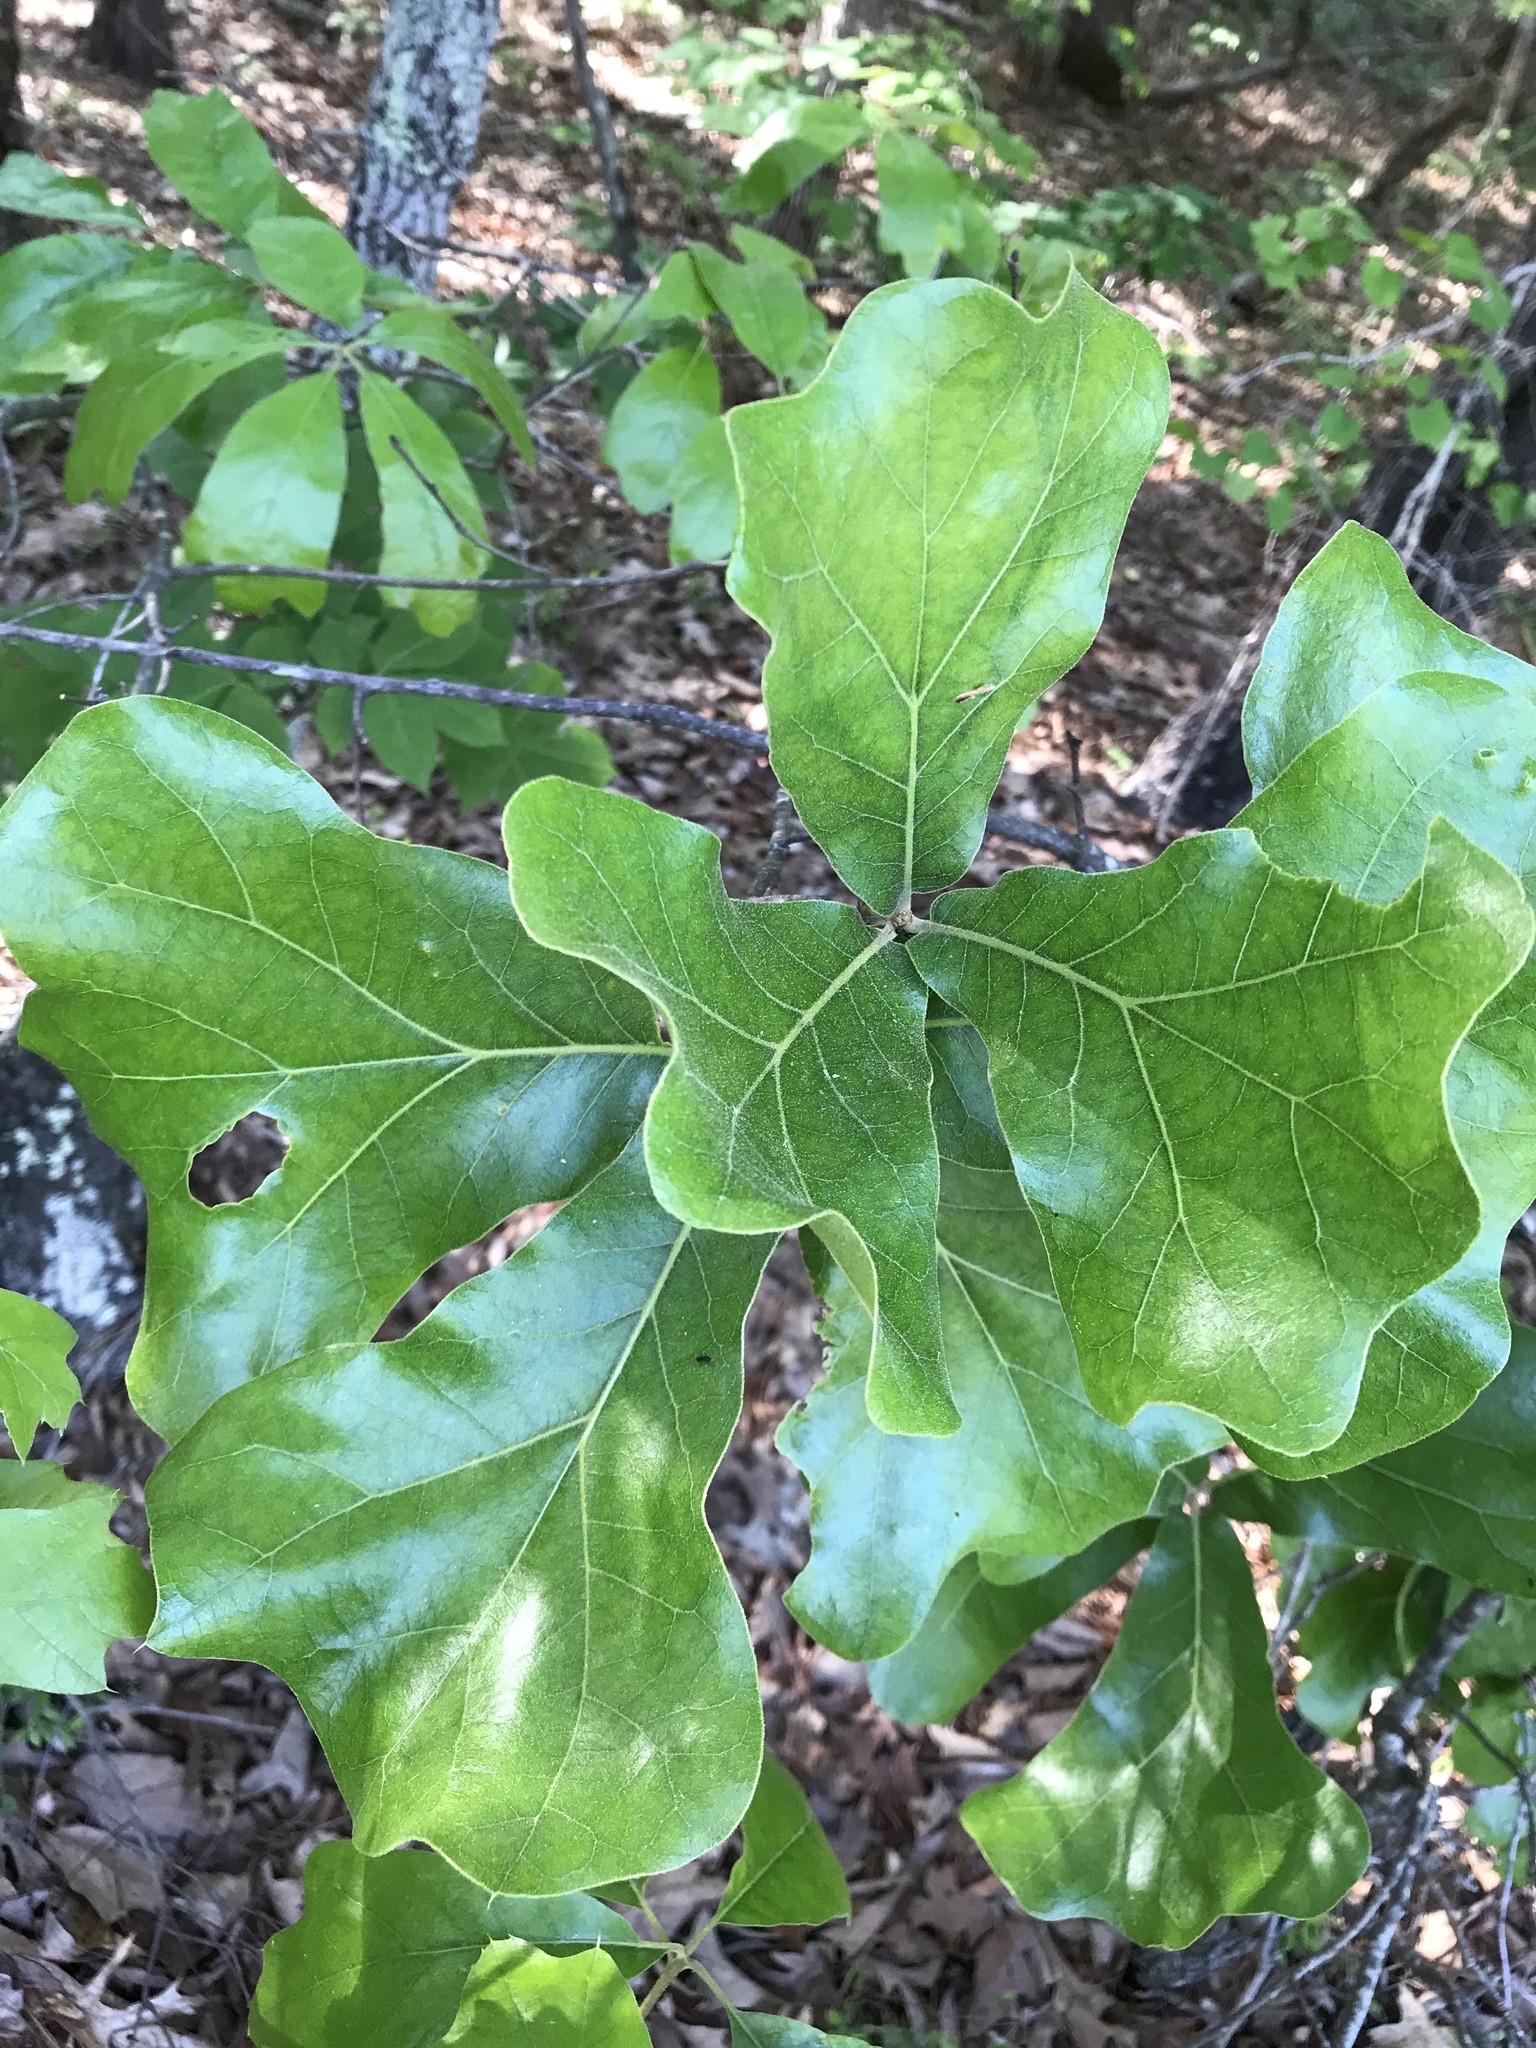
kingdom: Plantae
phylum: Tracheophyta
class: Magnoliopsida
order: Fagales
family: Fagaceae
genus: Quercus
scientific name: Quercus marilandica
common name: Blackjack oak
